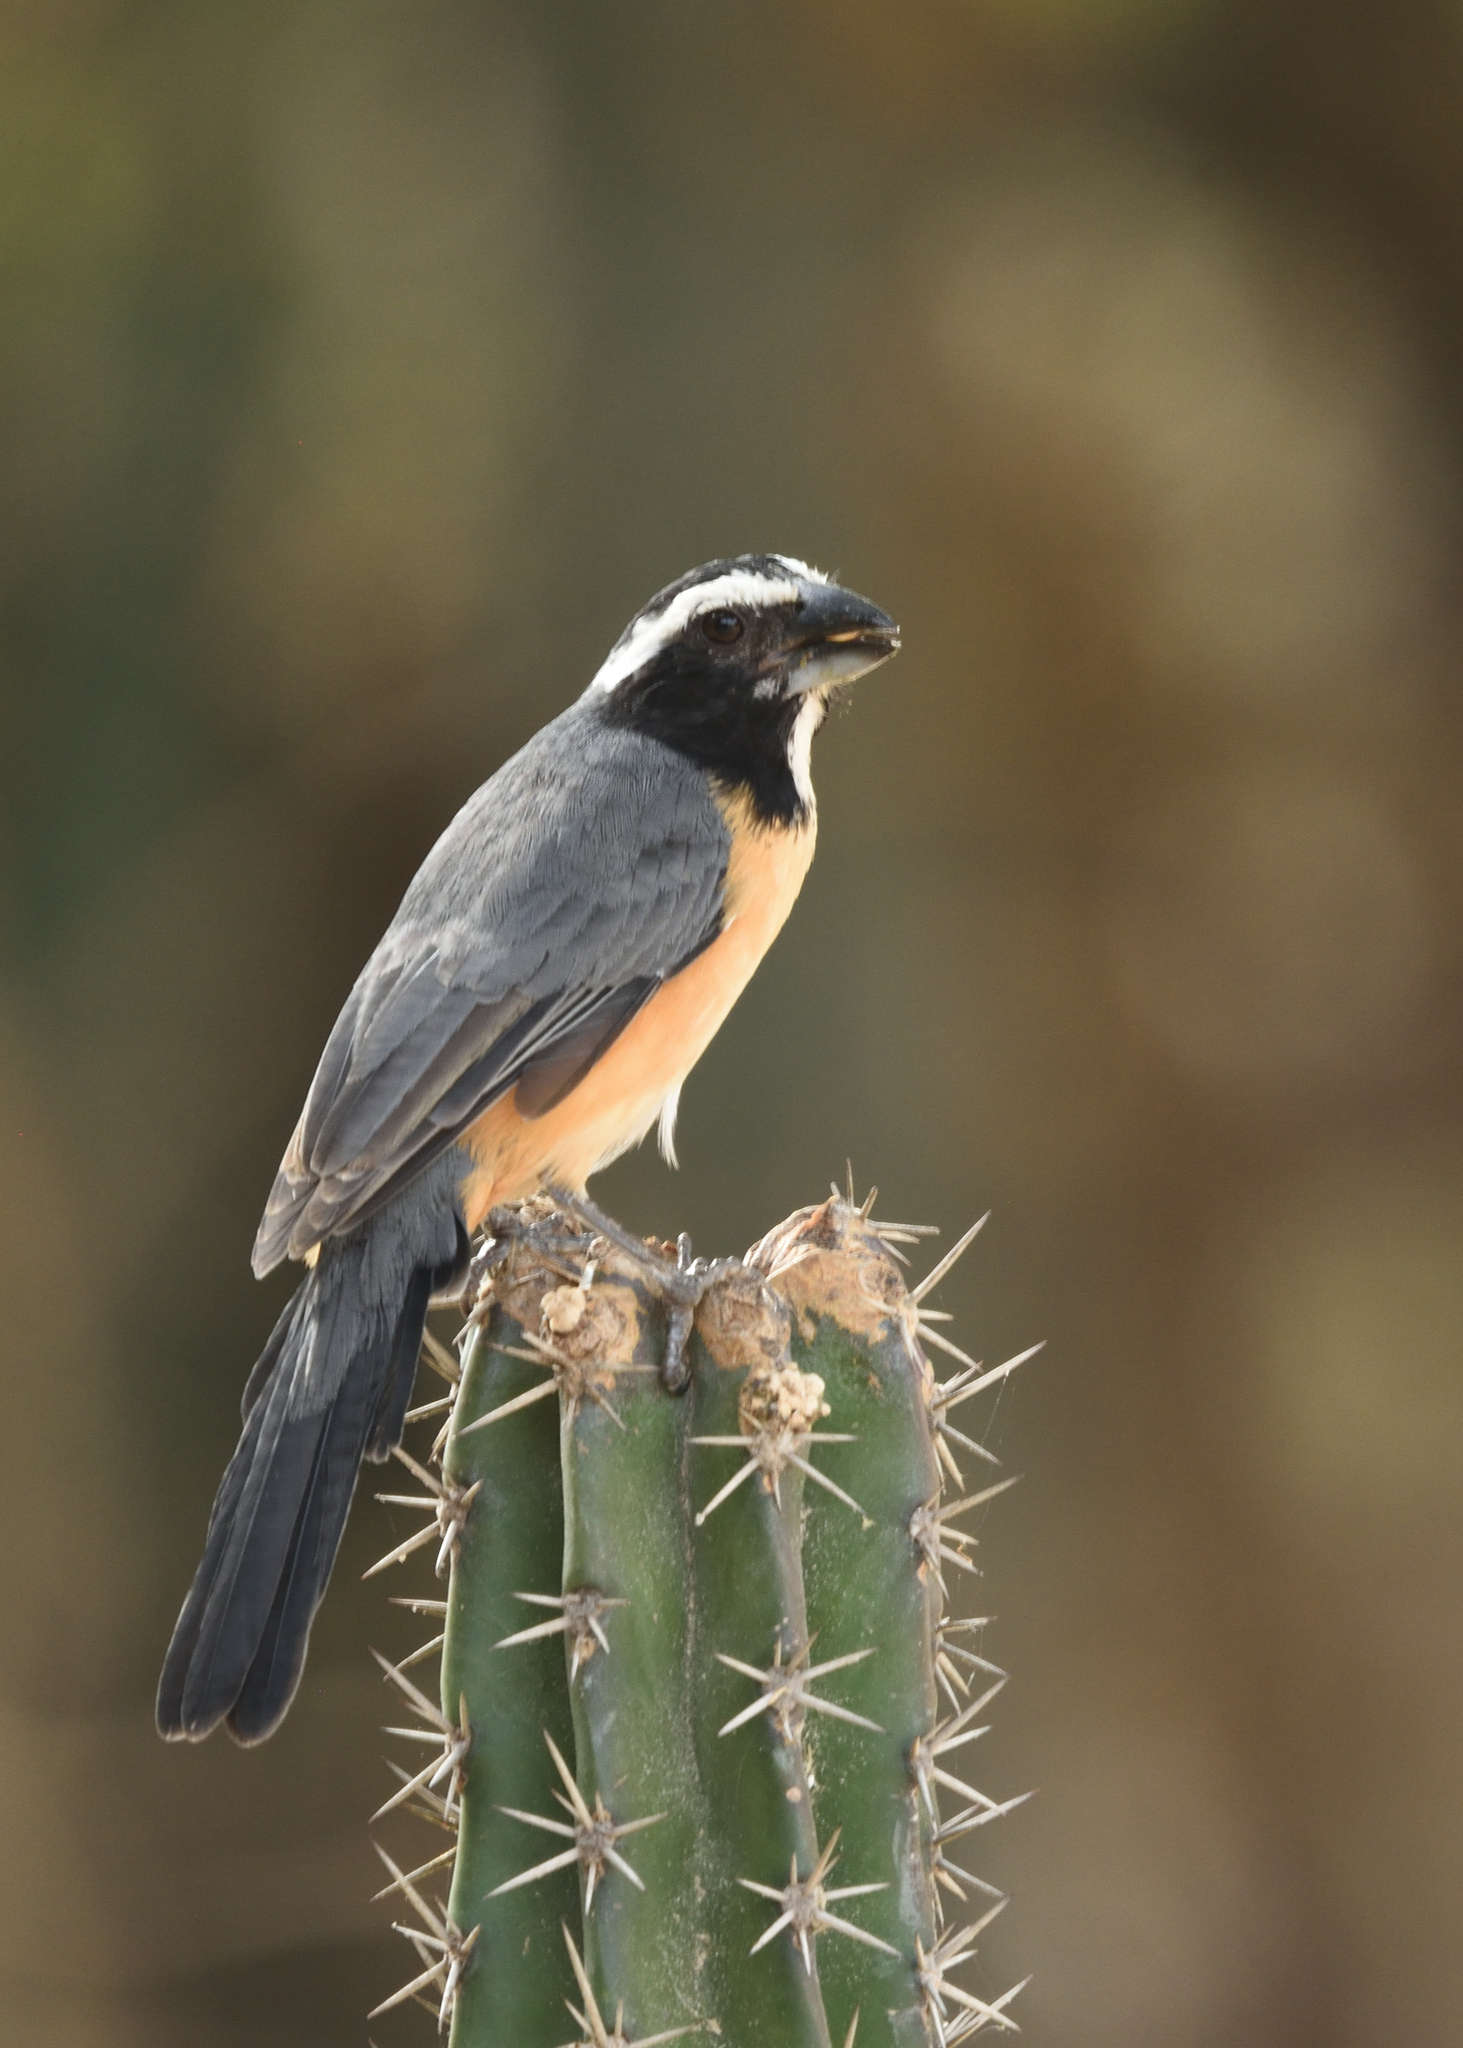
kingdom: Animalia
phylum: Chordata
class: Aves
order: Passeriformes
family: Thraupidae
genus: Saltator
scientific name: Saltator orenocensis
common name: Orinoco saltator
